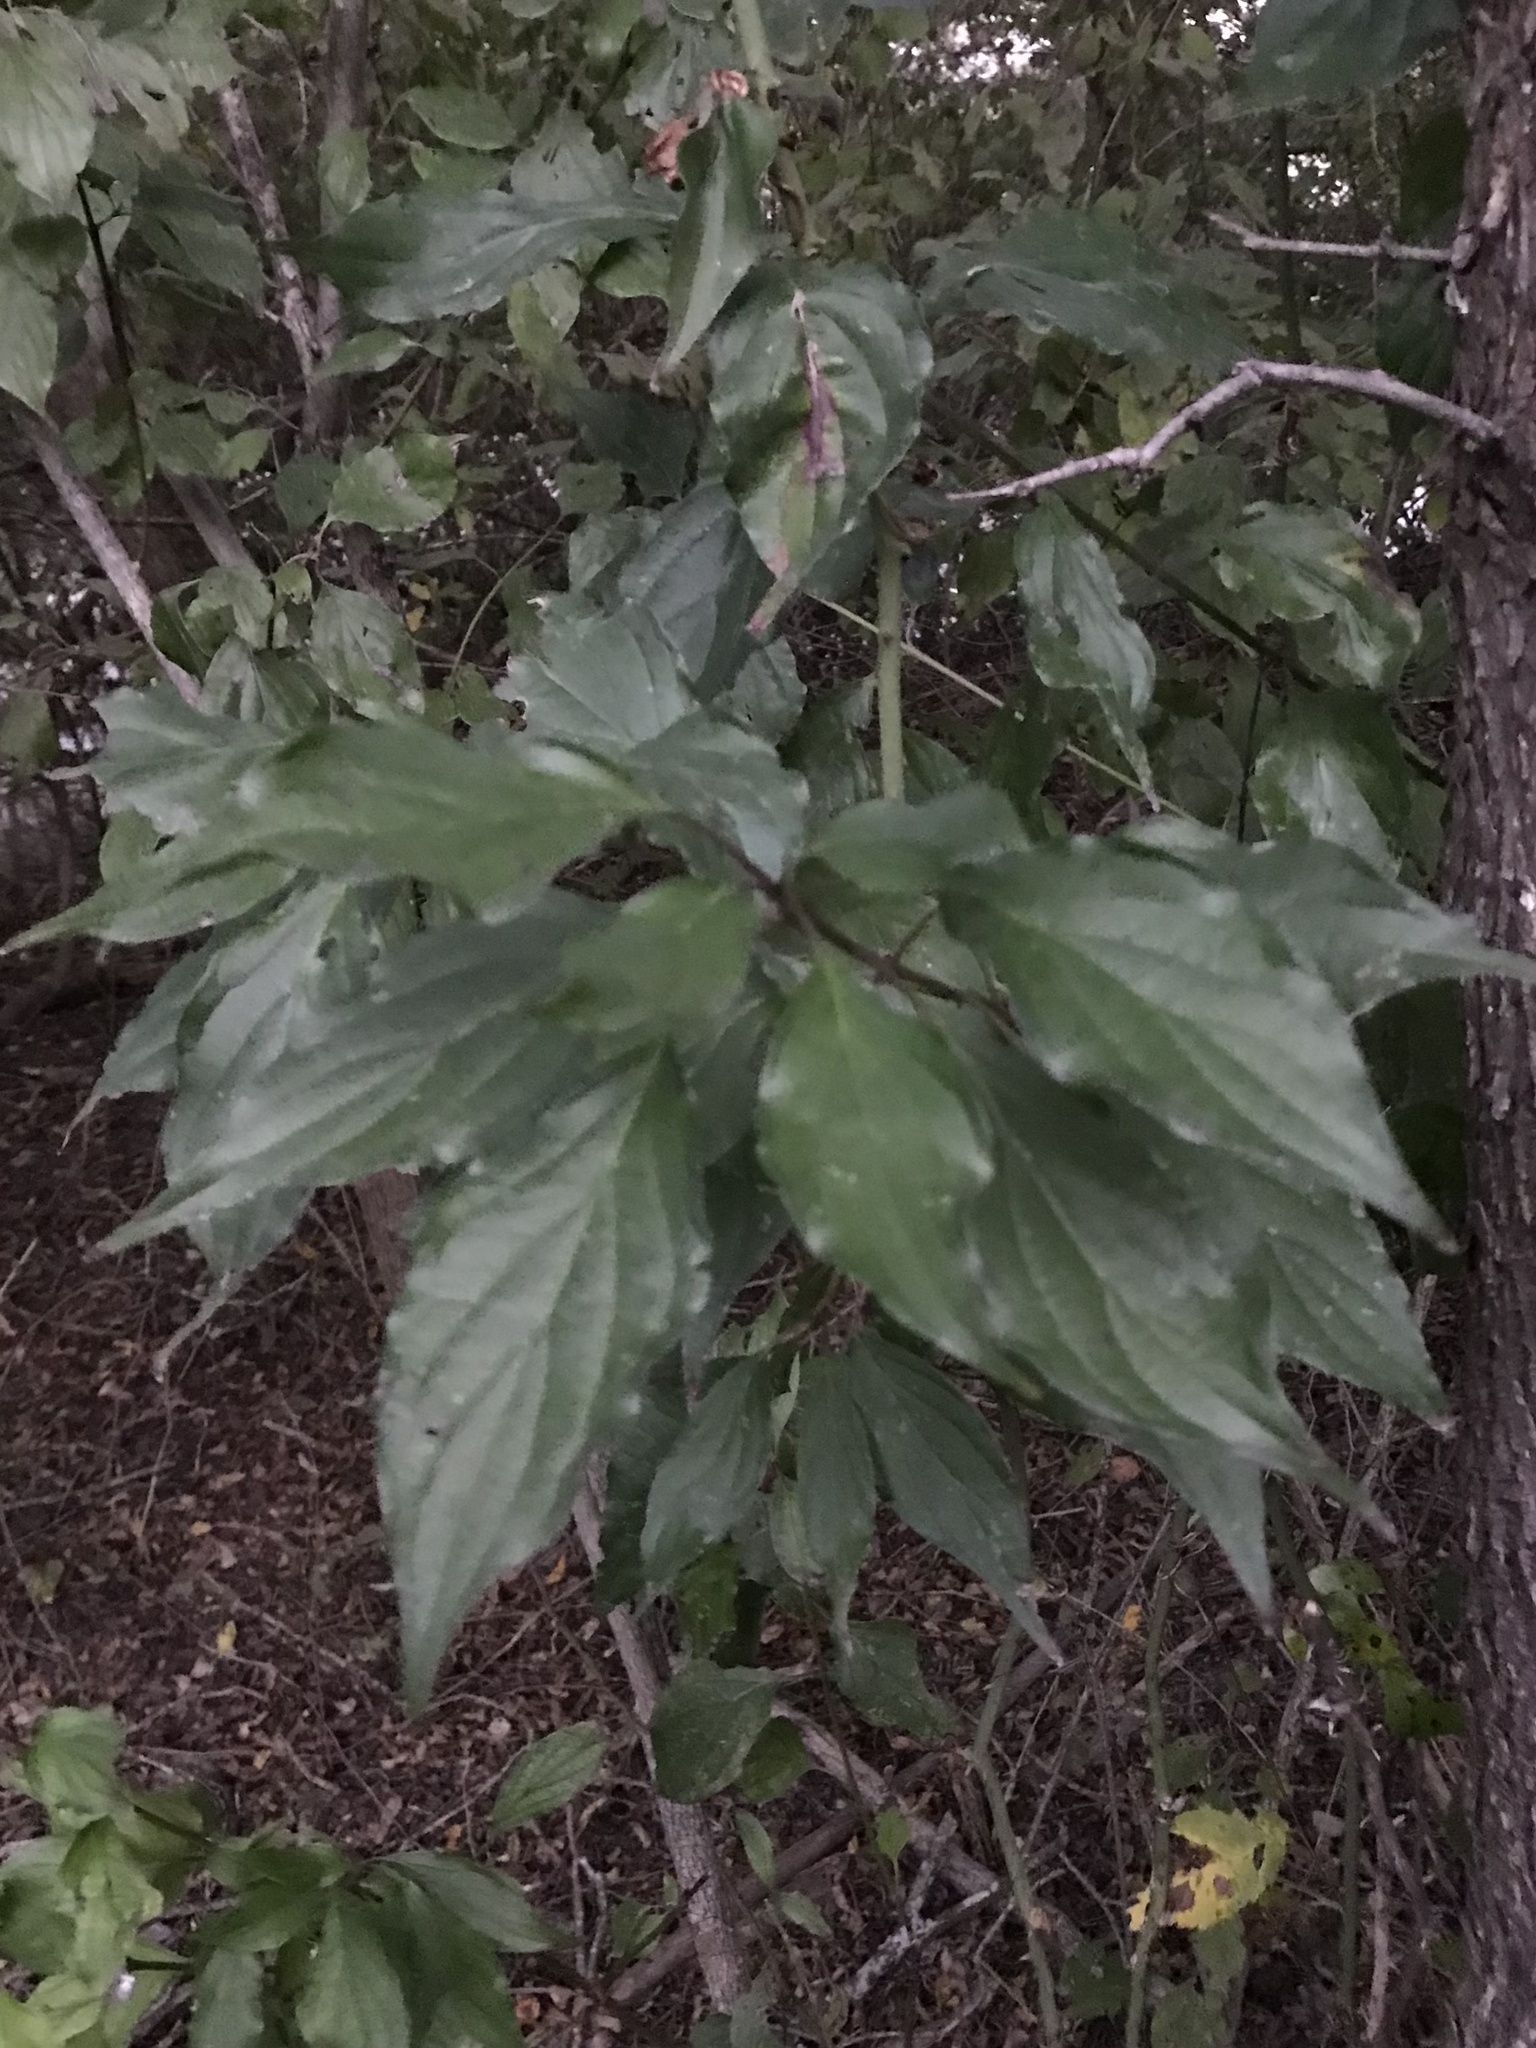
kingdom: Plantae
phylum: Tracheophyta
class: Magnoliopsida
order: Cornales
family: Cornaceae
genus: Cornus
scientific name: Cornus drummondii
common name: Rough-leaf dogwood
